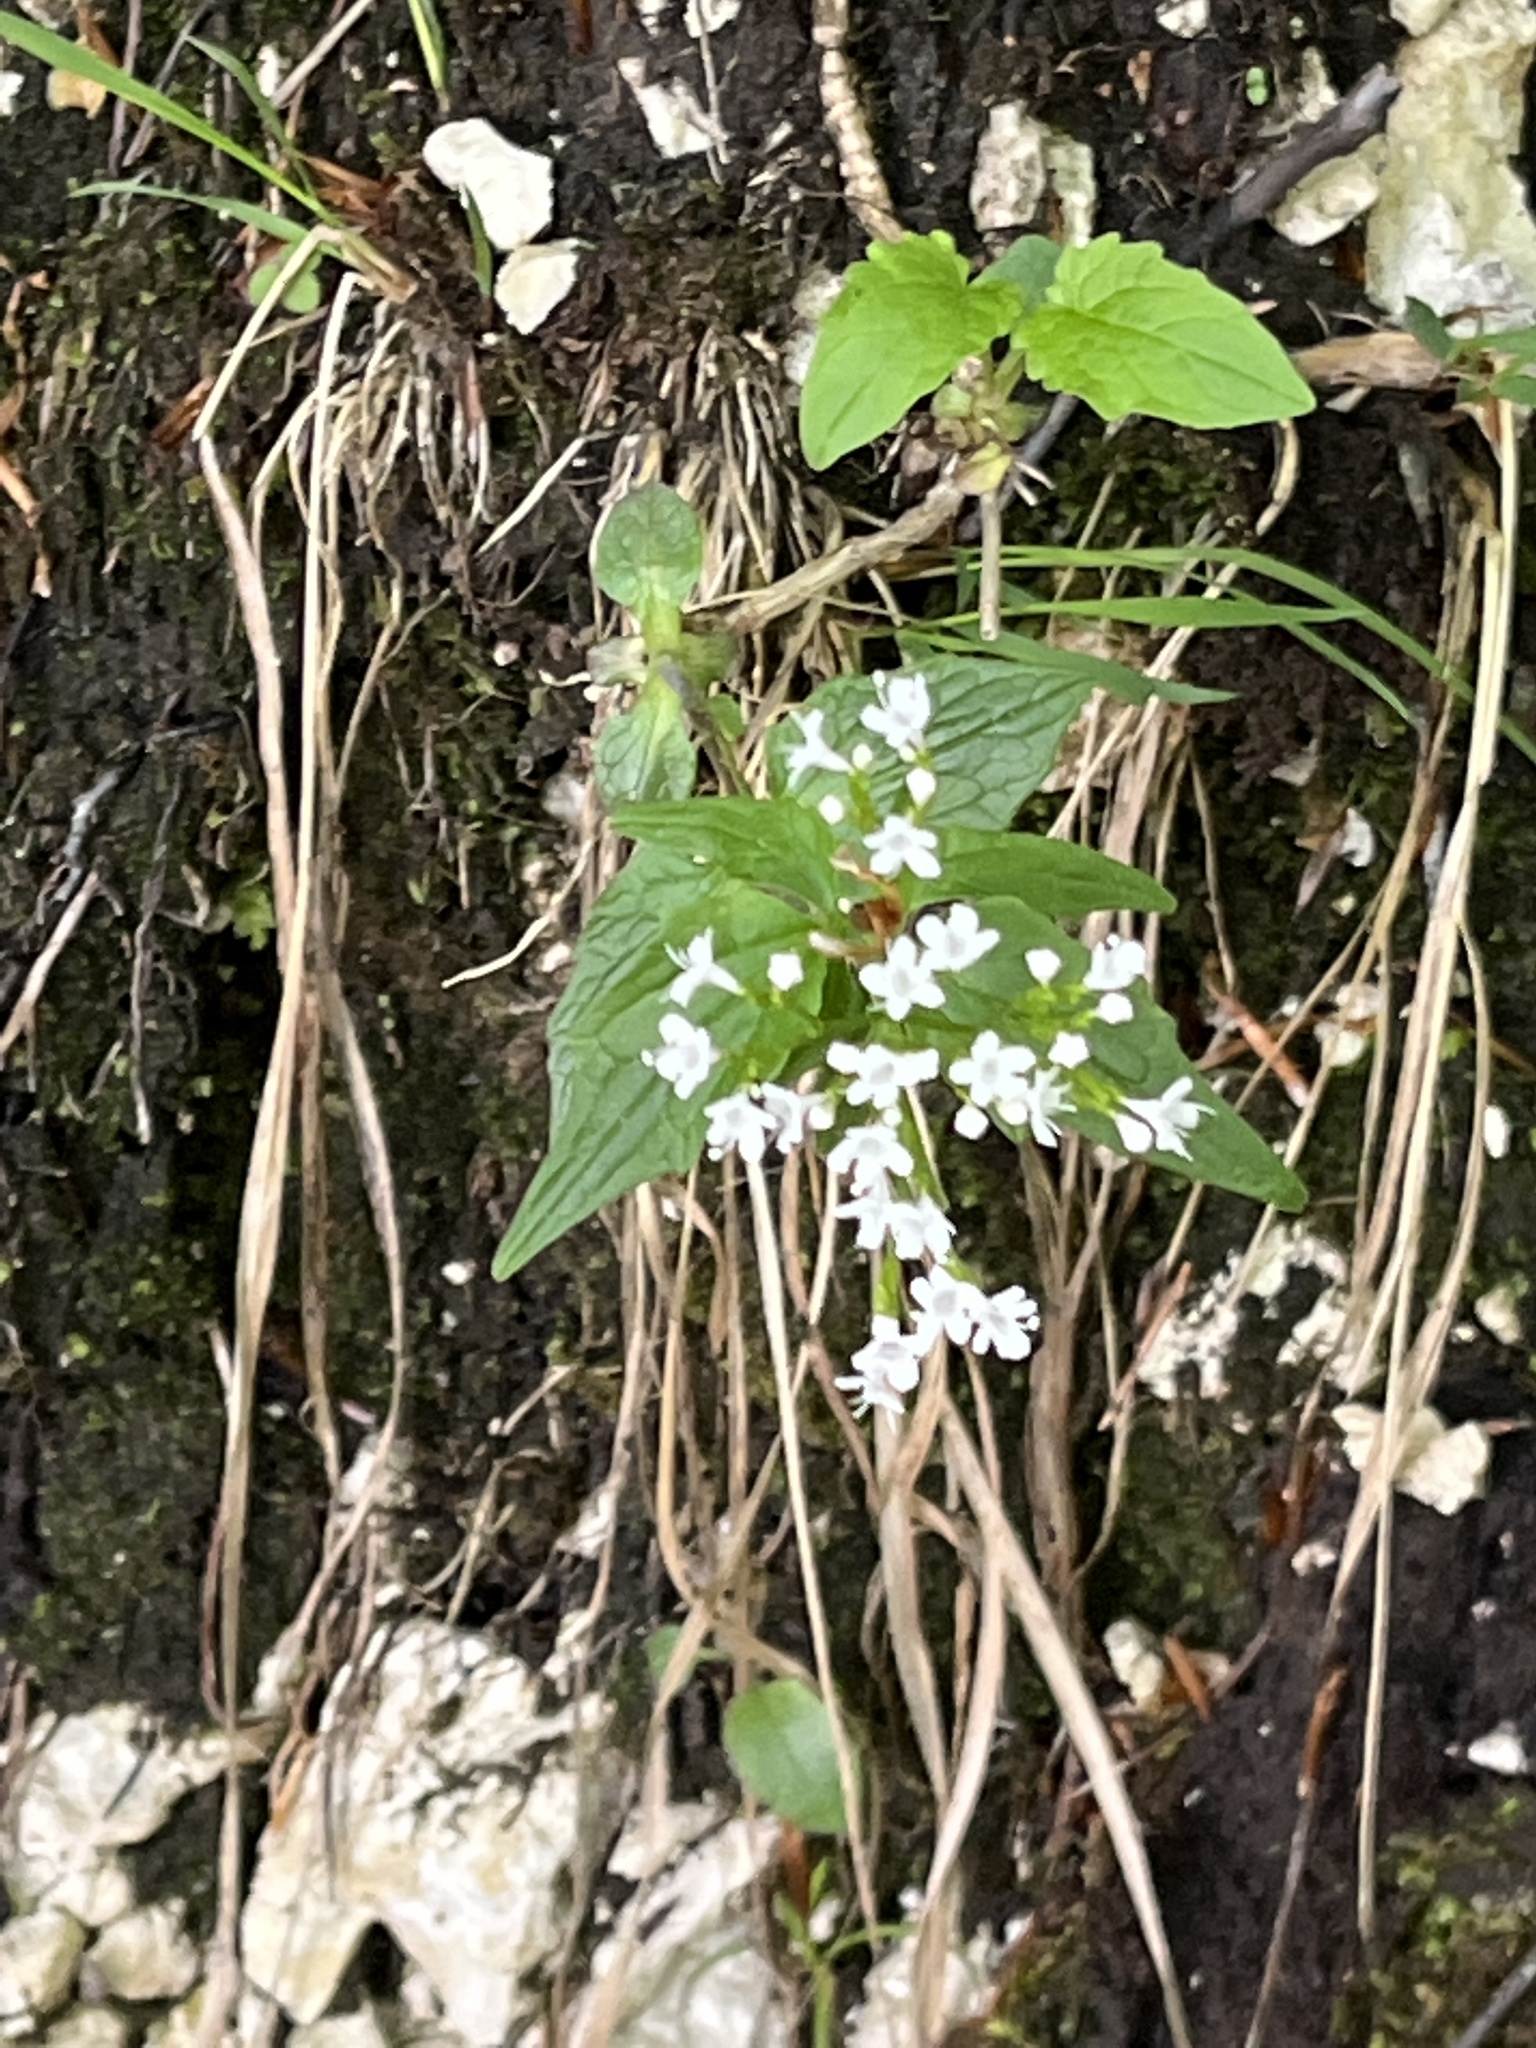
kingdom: Plantae
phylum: Tracheophyta
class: Magnoliopsida
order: Dipsacales
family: Caprifoliaceae
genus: Valeriana
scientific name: Valeriana tripteris
